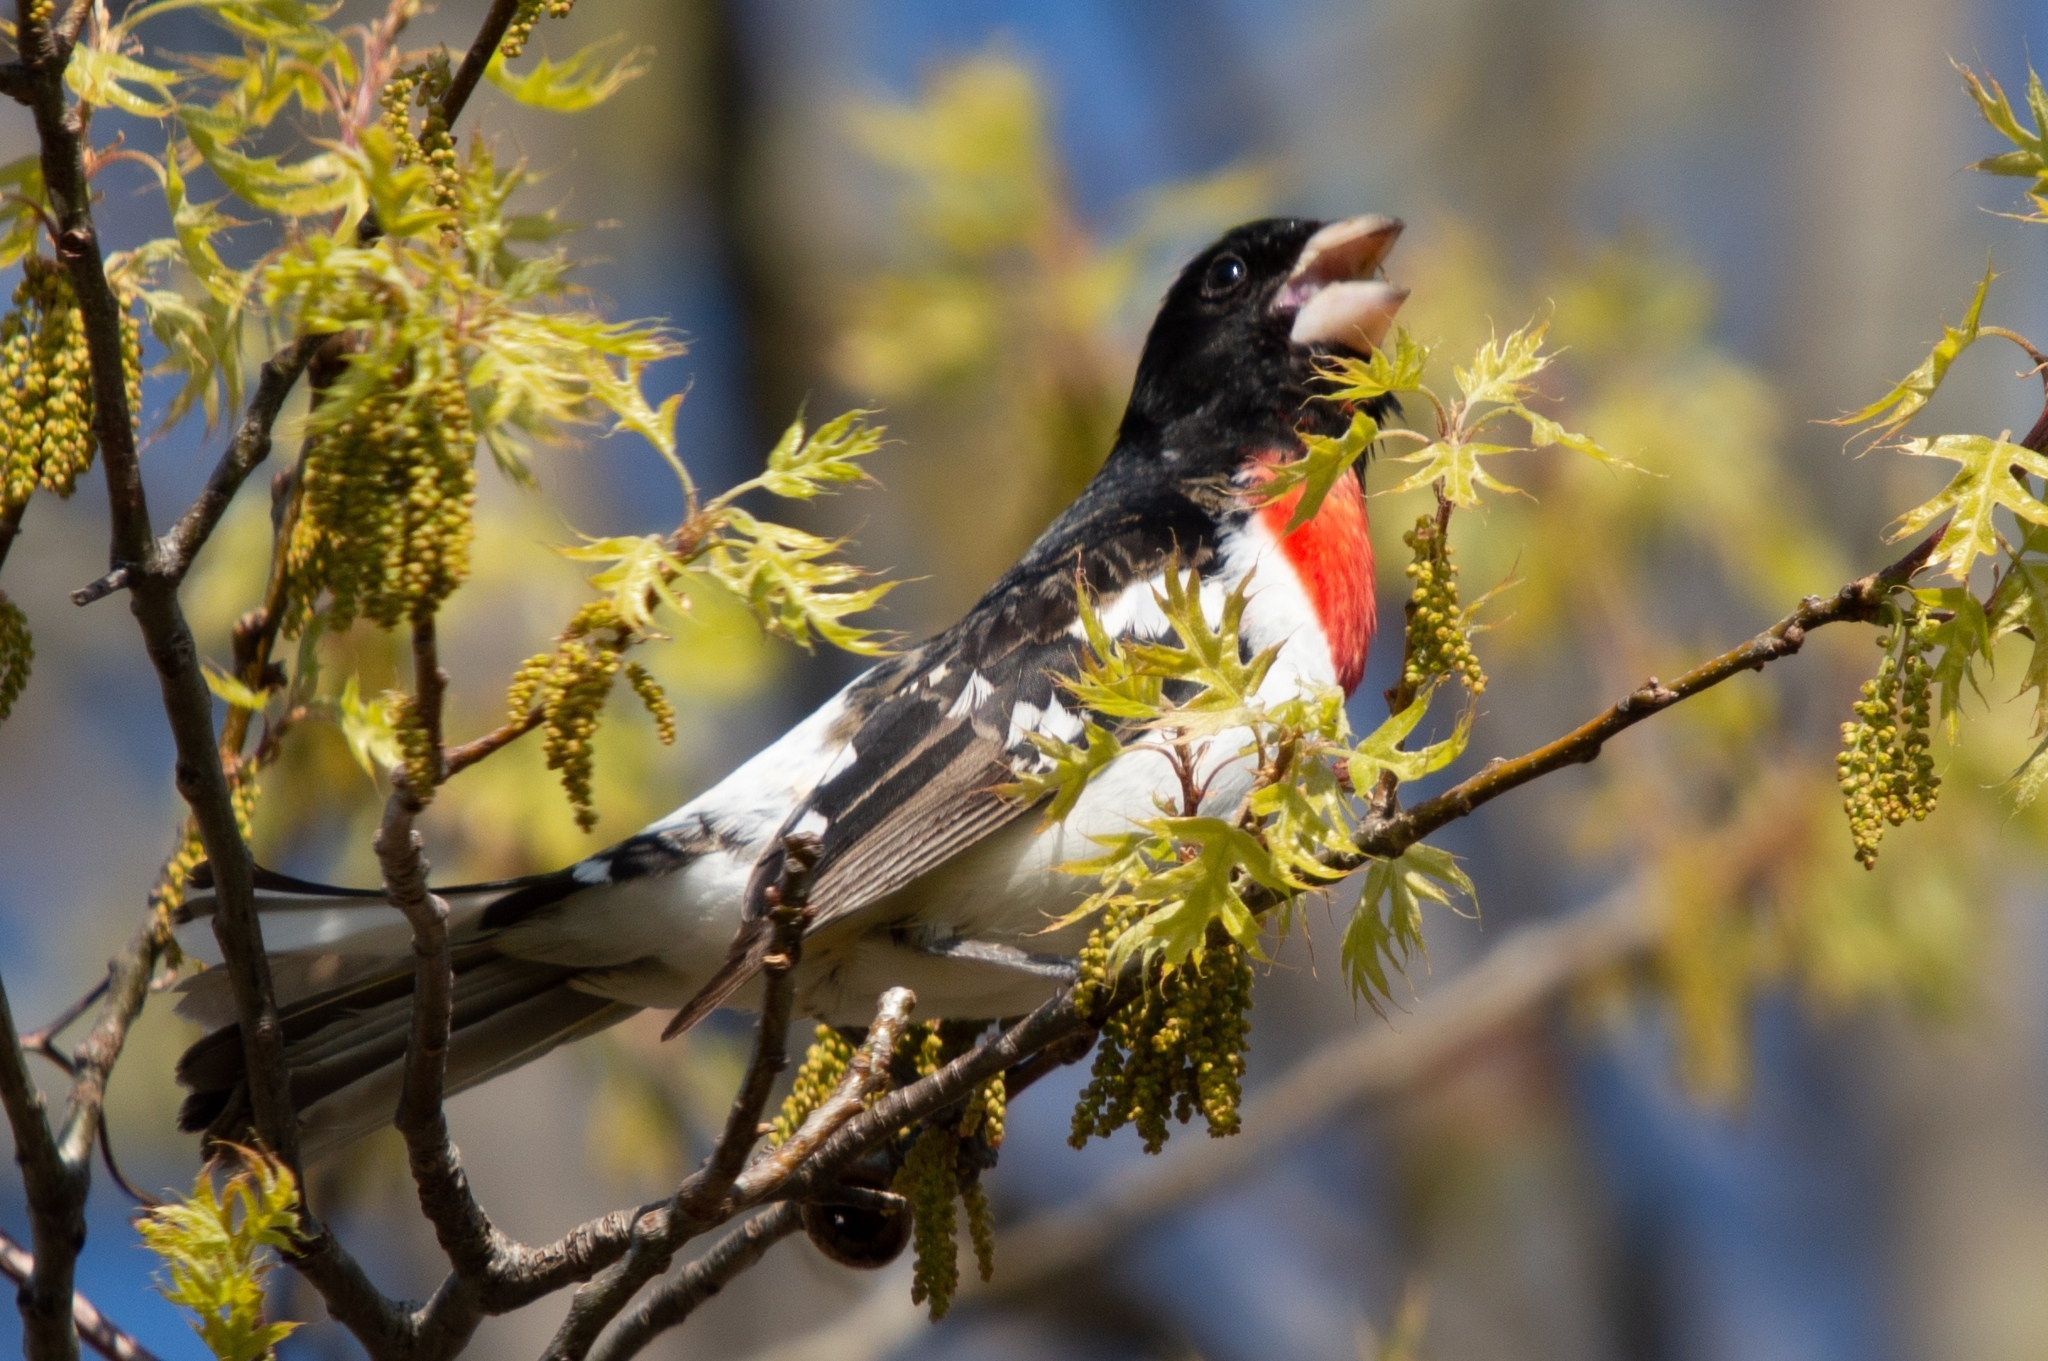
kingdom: Animalia
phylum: Chordata
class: Aves
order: Passeriformes
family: Cardinalidae
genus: Pheucticus
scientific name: Pheucticus ludovicianus
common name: Rose-breasted grosbeak
